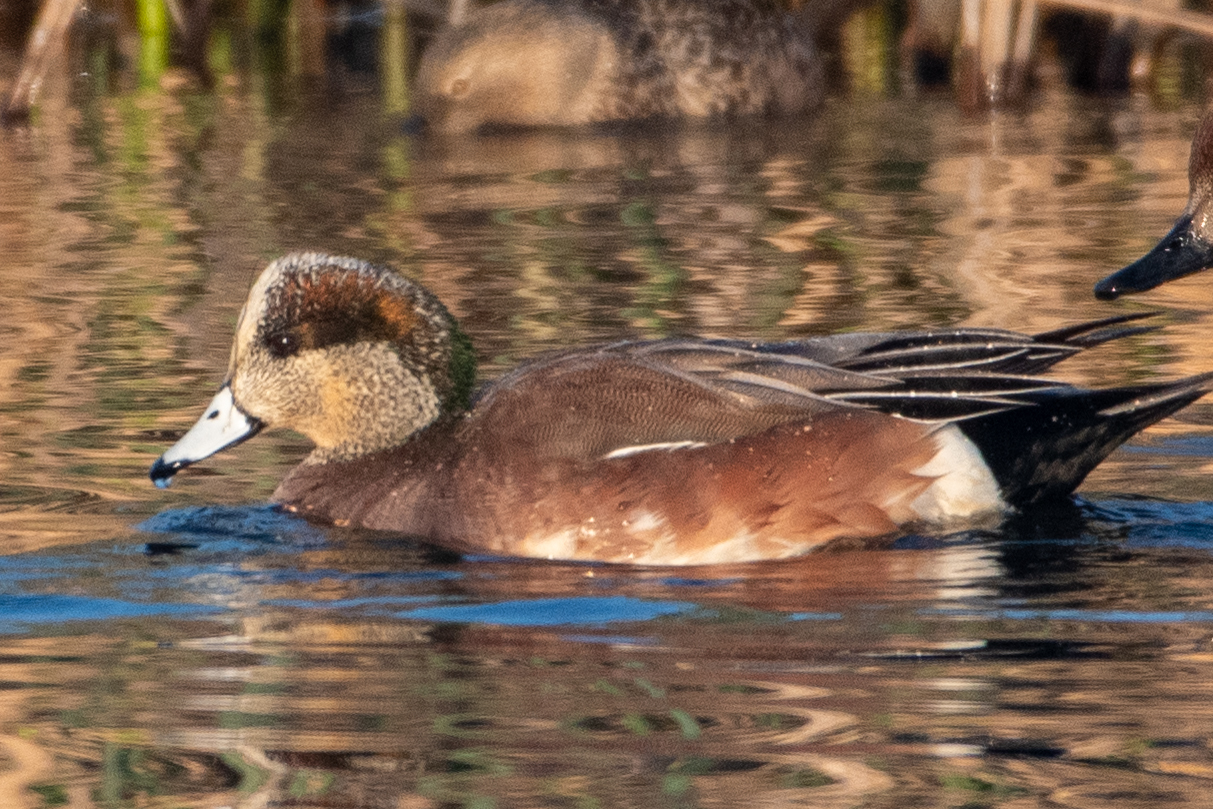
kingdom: Animalia
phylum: Chordata
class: Aves
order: Anseriformes
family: Anatidae
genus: Mareca
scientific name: Mareca americana
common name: American wigeon
